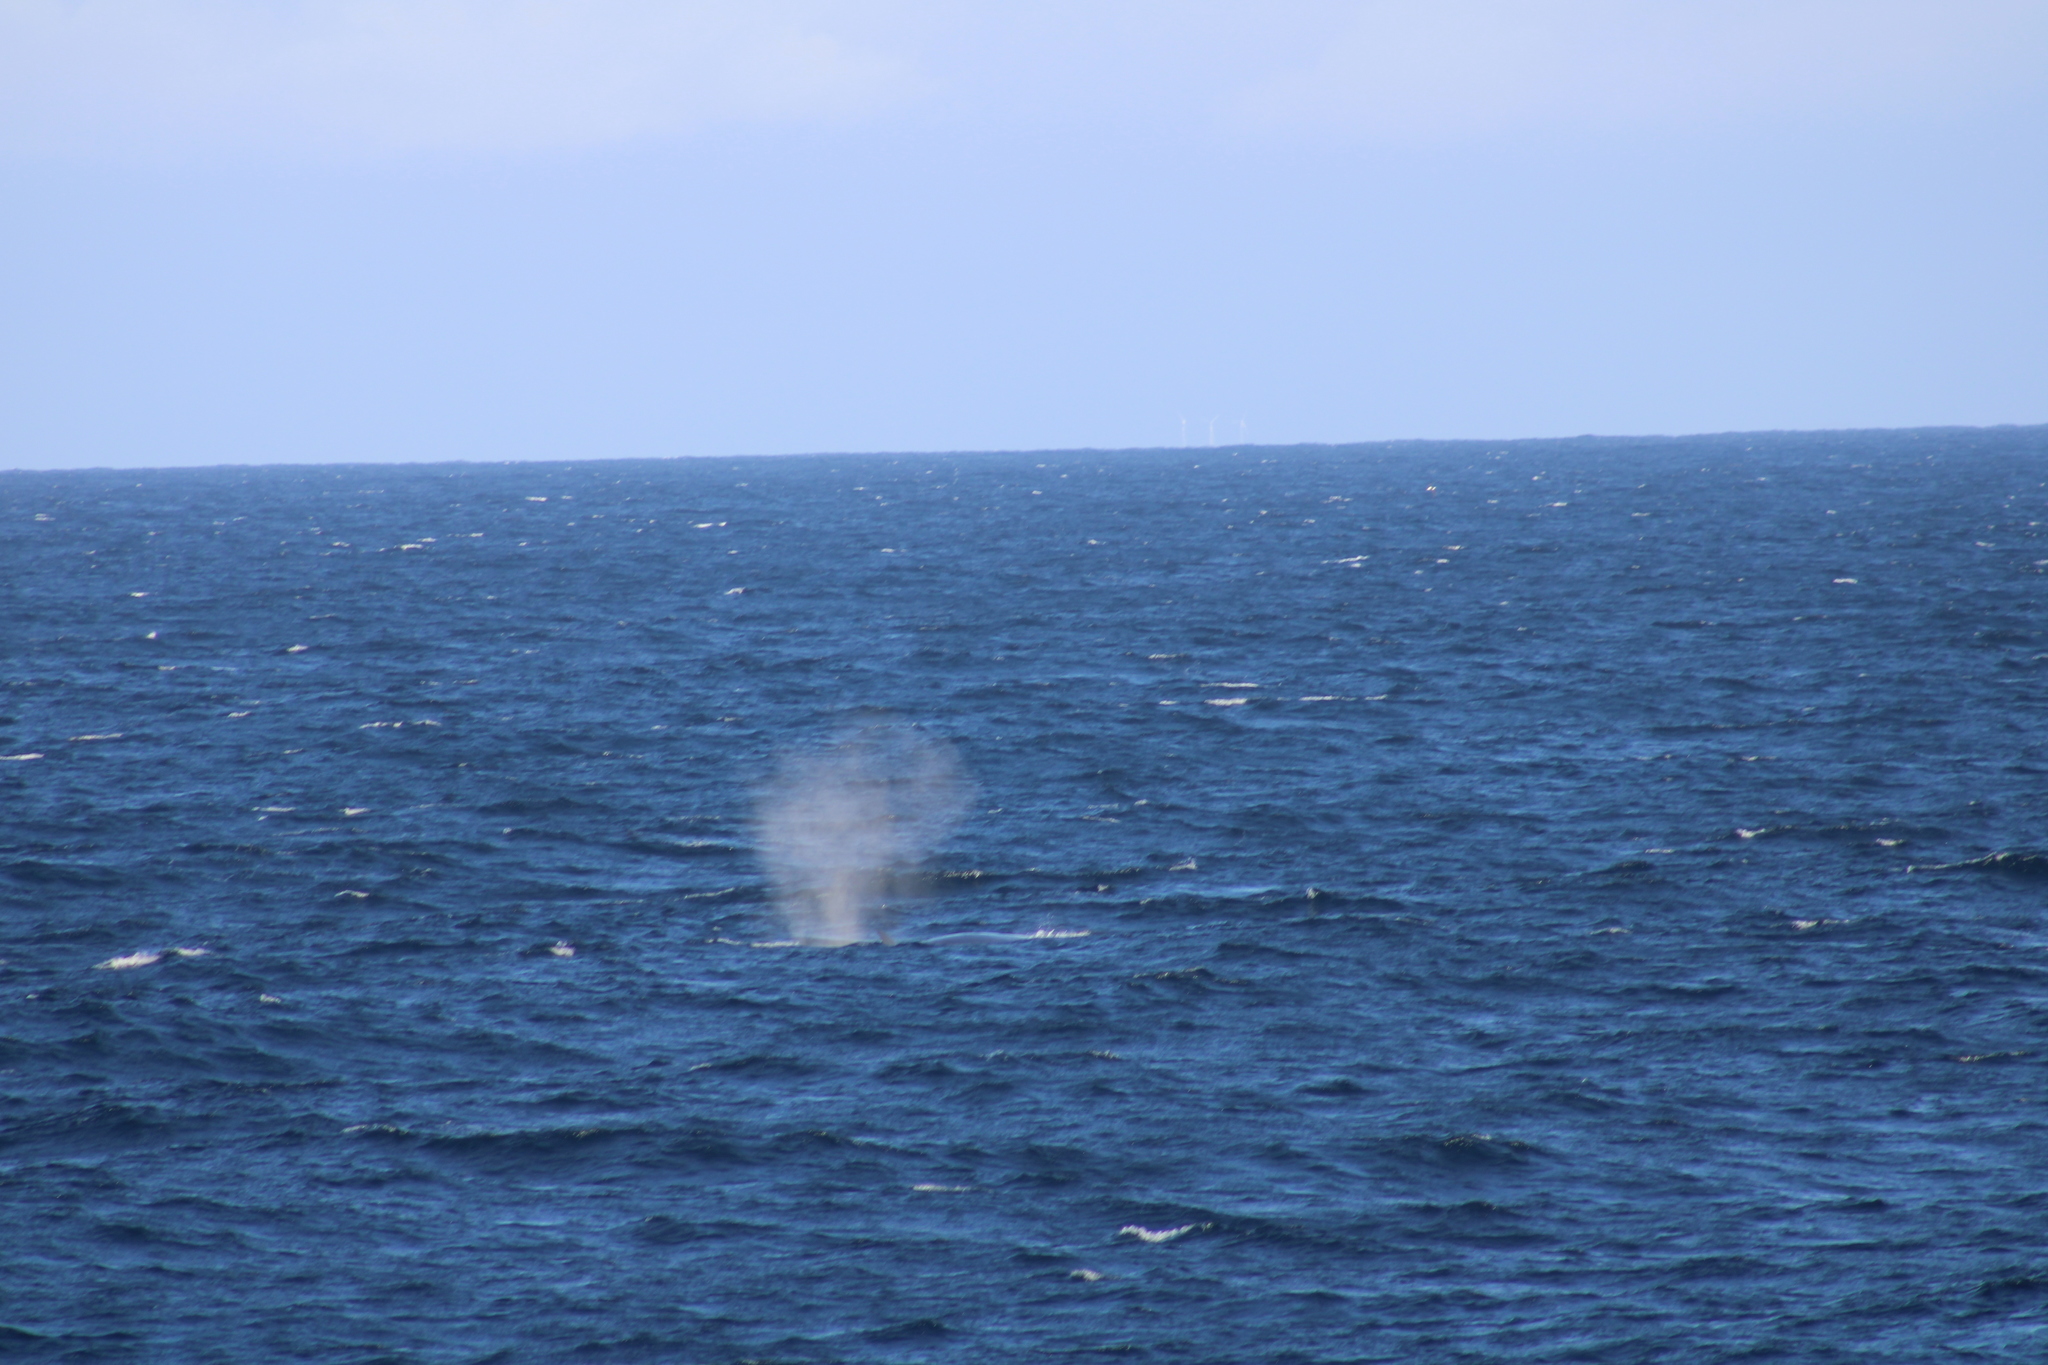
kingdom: Animalia
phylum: Chordata
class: Mammalia
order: Cetacea
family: Balaenopteridae
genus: Balaenoptera
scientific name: Balaenoptera borealis
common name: Sei whale
